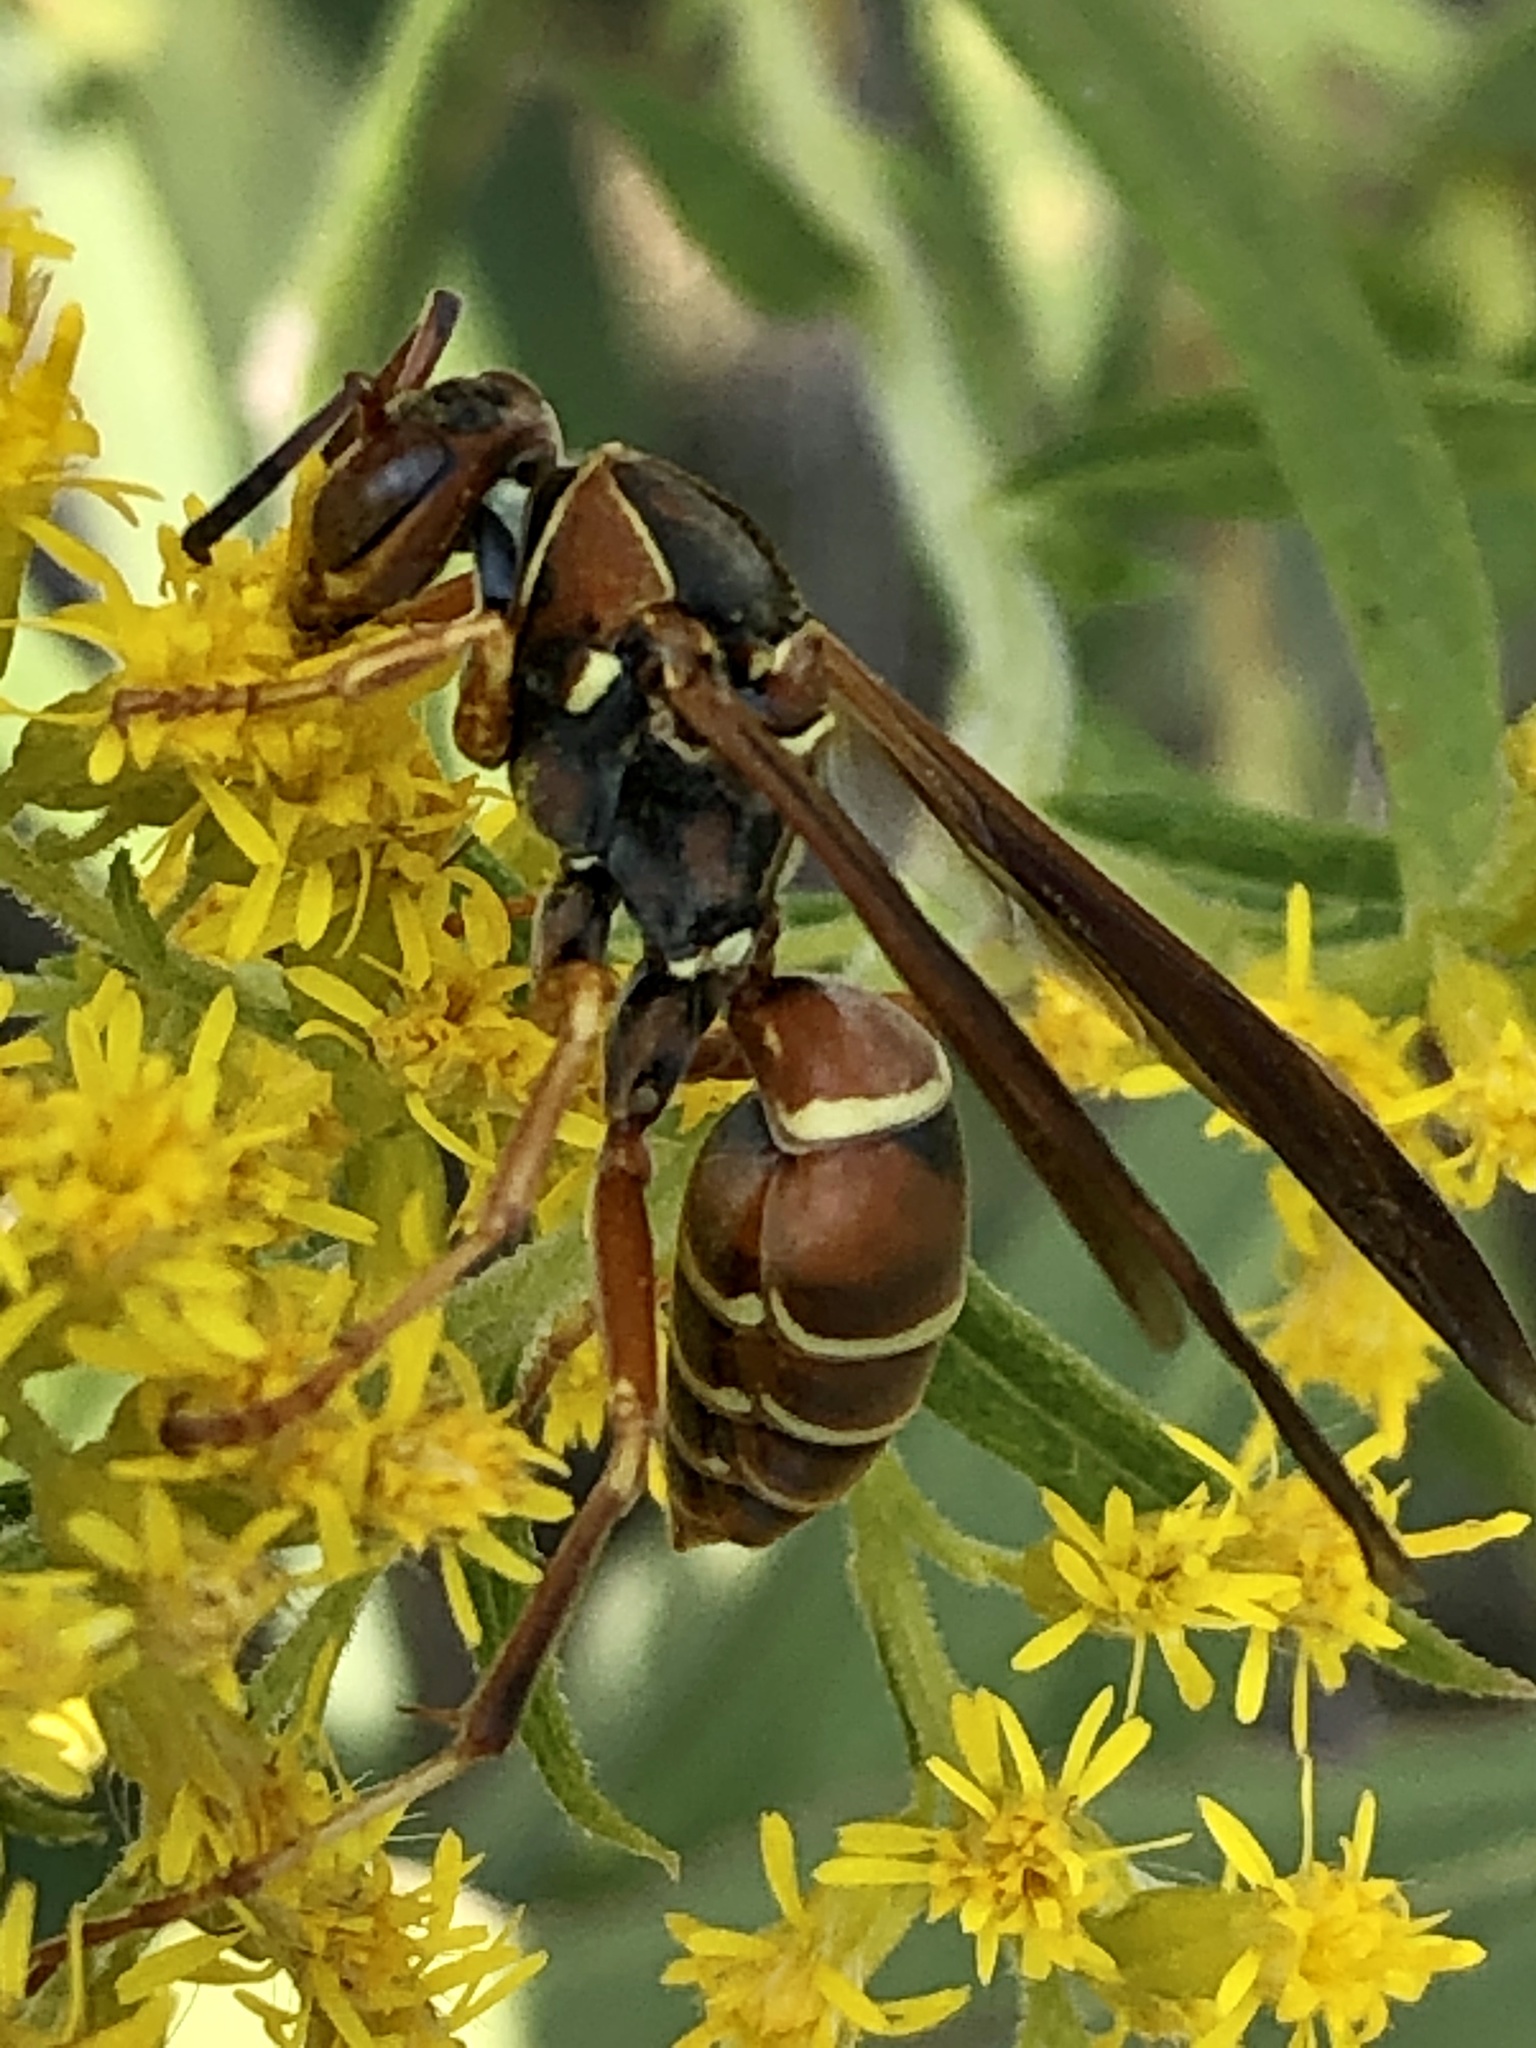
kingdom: Animalia
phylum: Arthropoda
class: Insecta
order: Hymenoptera
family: Eumenidae
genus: Polistes
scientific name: Polistes fuscatus
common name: Dark paper wasp
